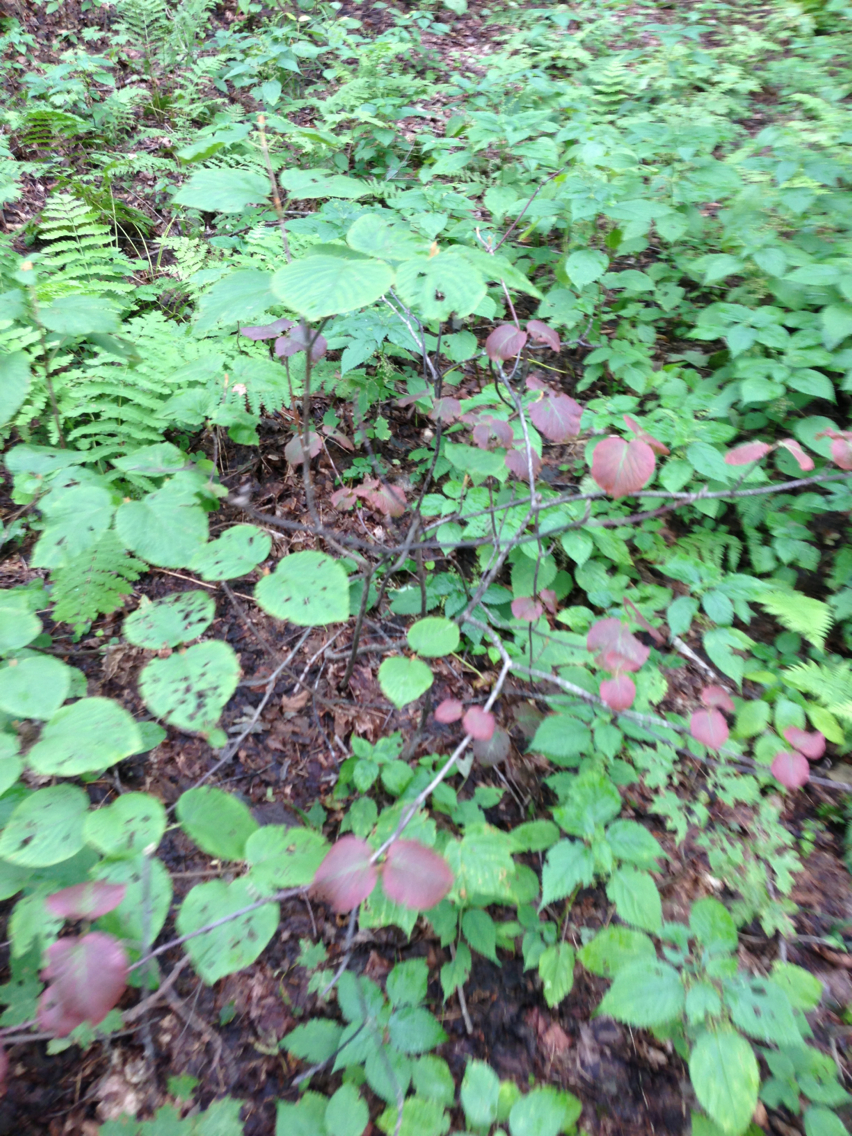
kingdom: Plantae
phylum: Tracheophyta
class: Magnoliopsida
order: Dipsacales
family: Viburnaceae
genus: Viburnum
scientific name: Viburnum lantanoides
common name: Hobblebush
